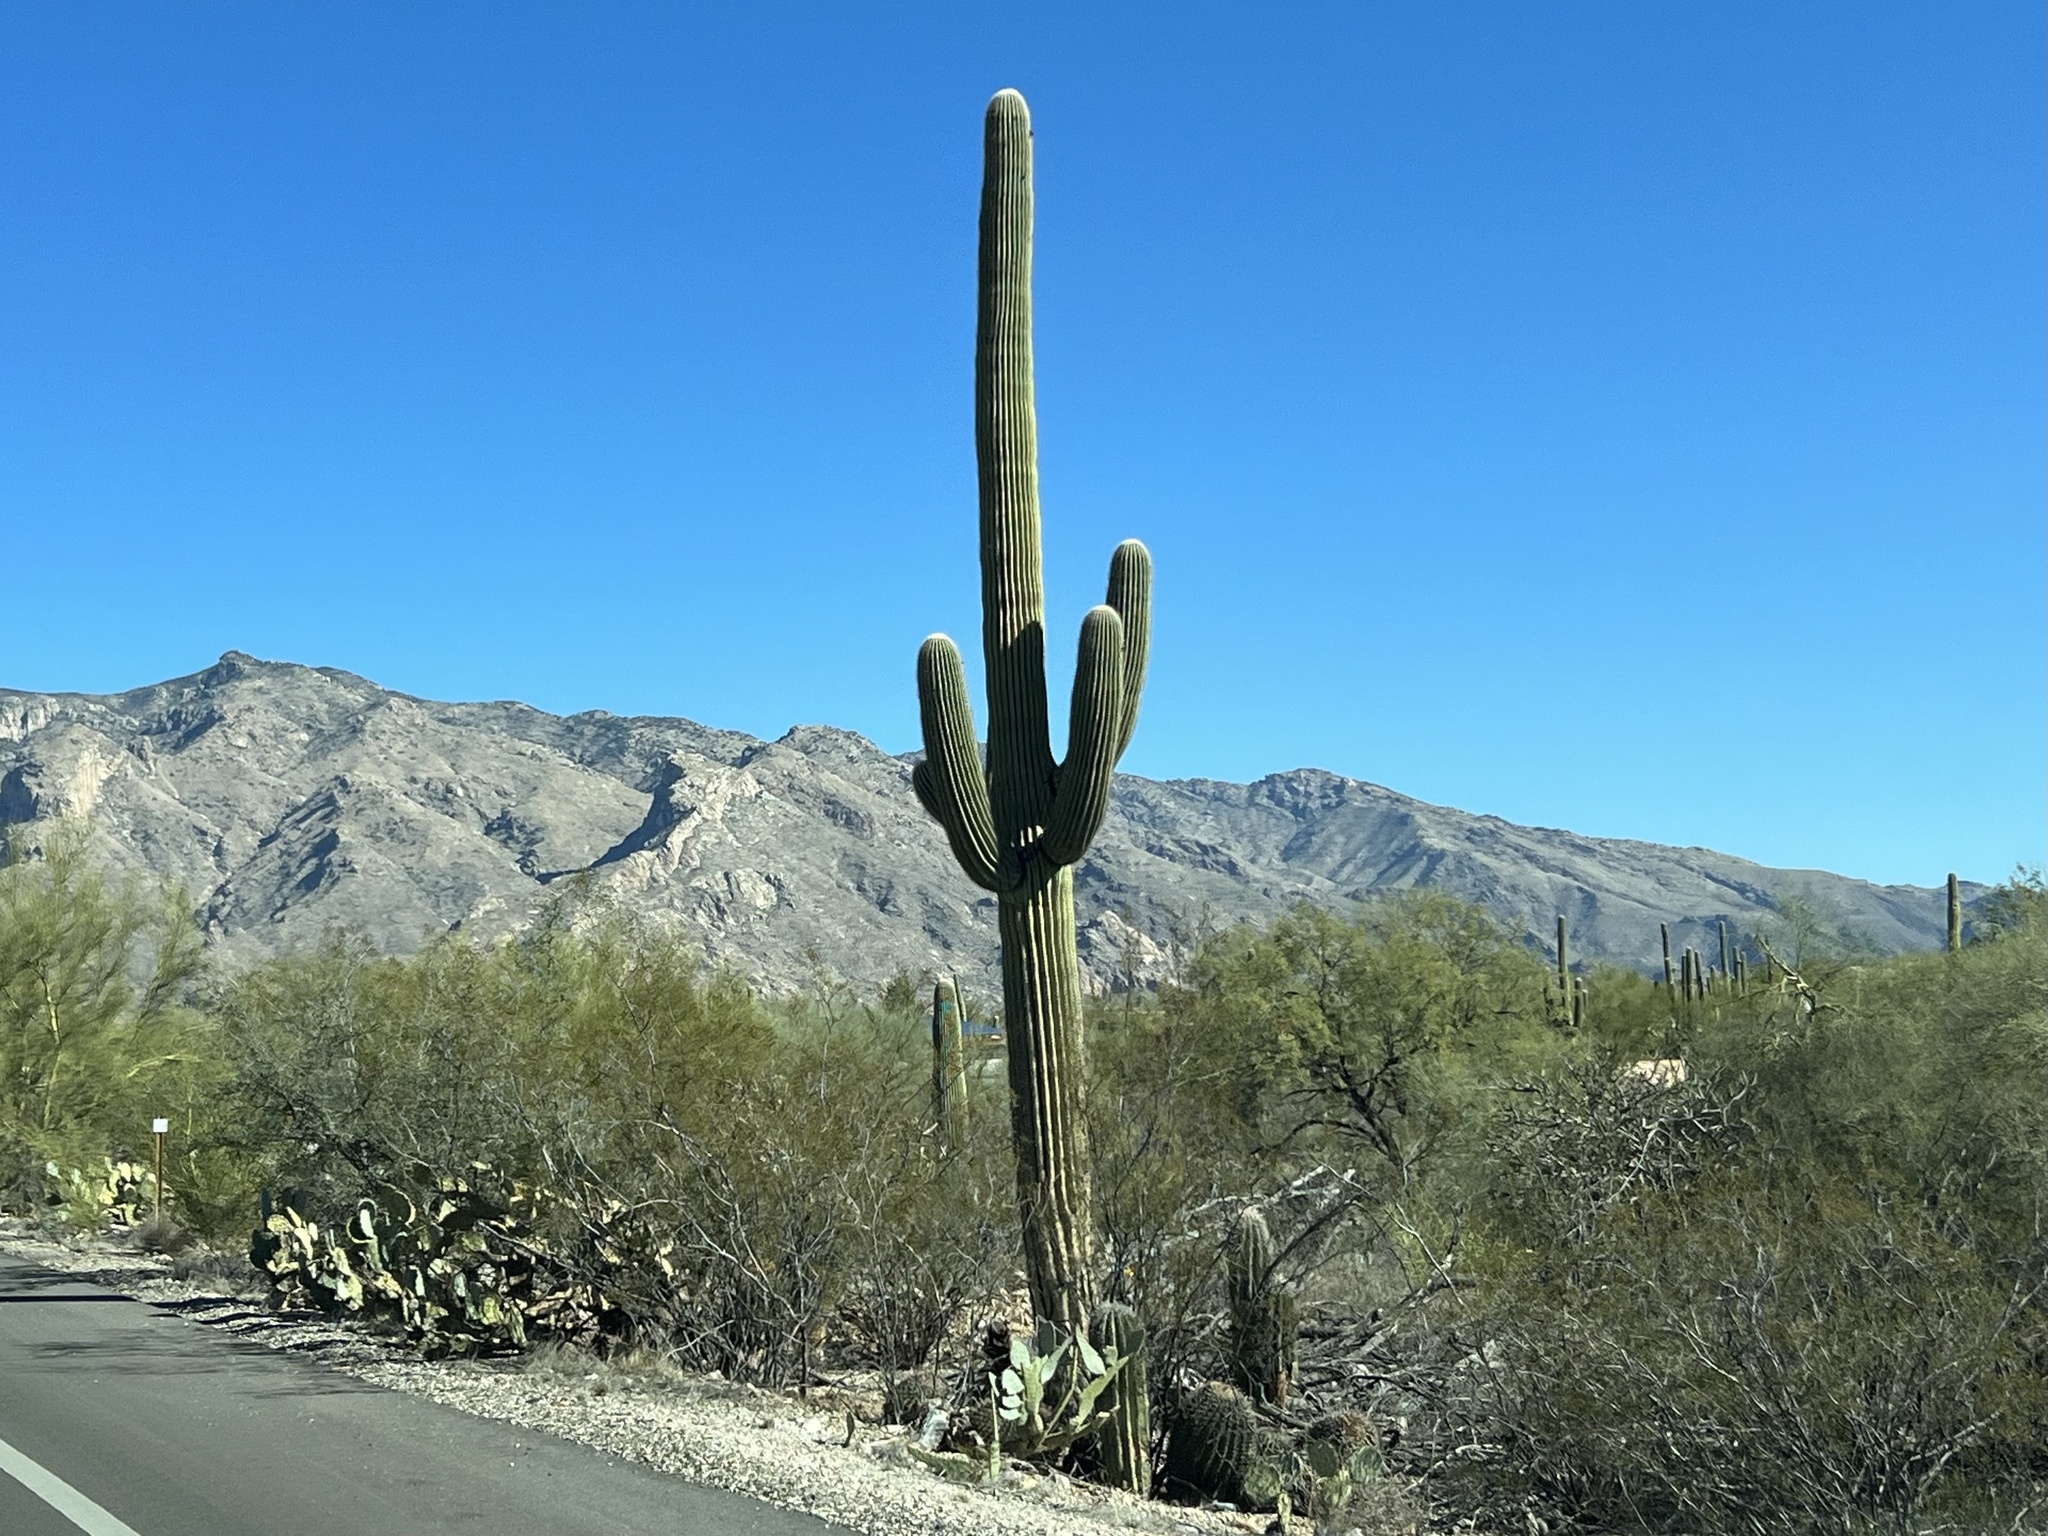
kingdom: Plantae
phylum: Tracheophyta
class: Magnoliopsida
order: Caryophyllales
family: Cactaceae
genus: Carnegiea
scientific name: Carnegiea gigantea
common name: Saguaro
